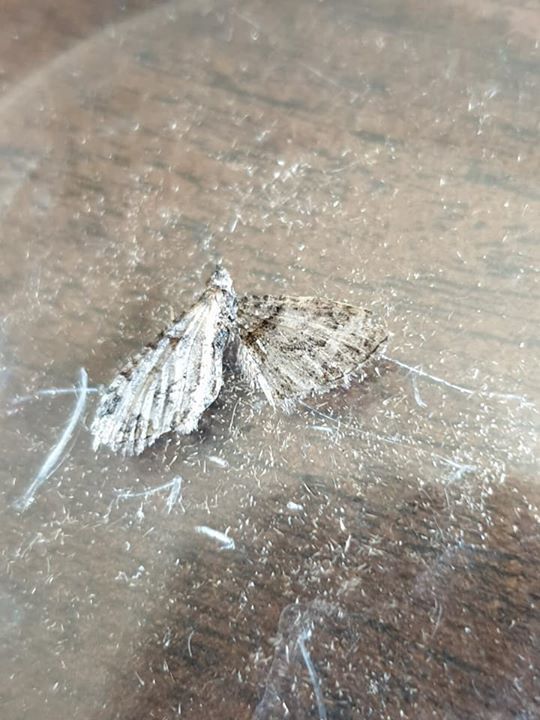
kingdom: Animalia
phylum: Arthropoda
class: Insecta
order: Lepidoptera
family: Geometridae
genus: Phrissogonus
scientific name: Phrissogonus laticostata
